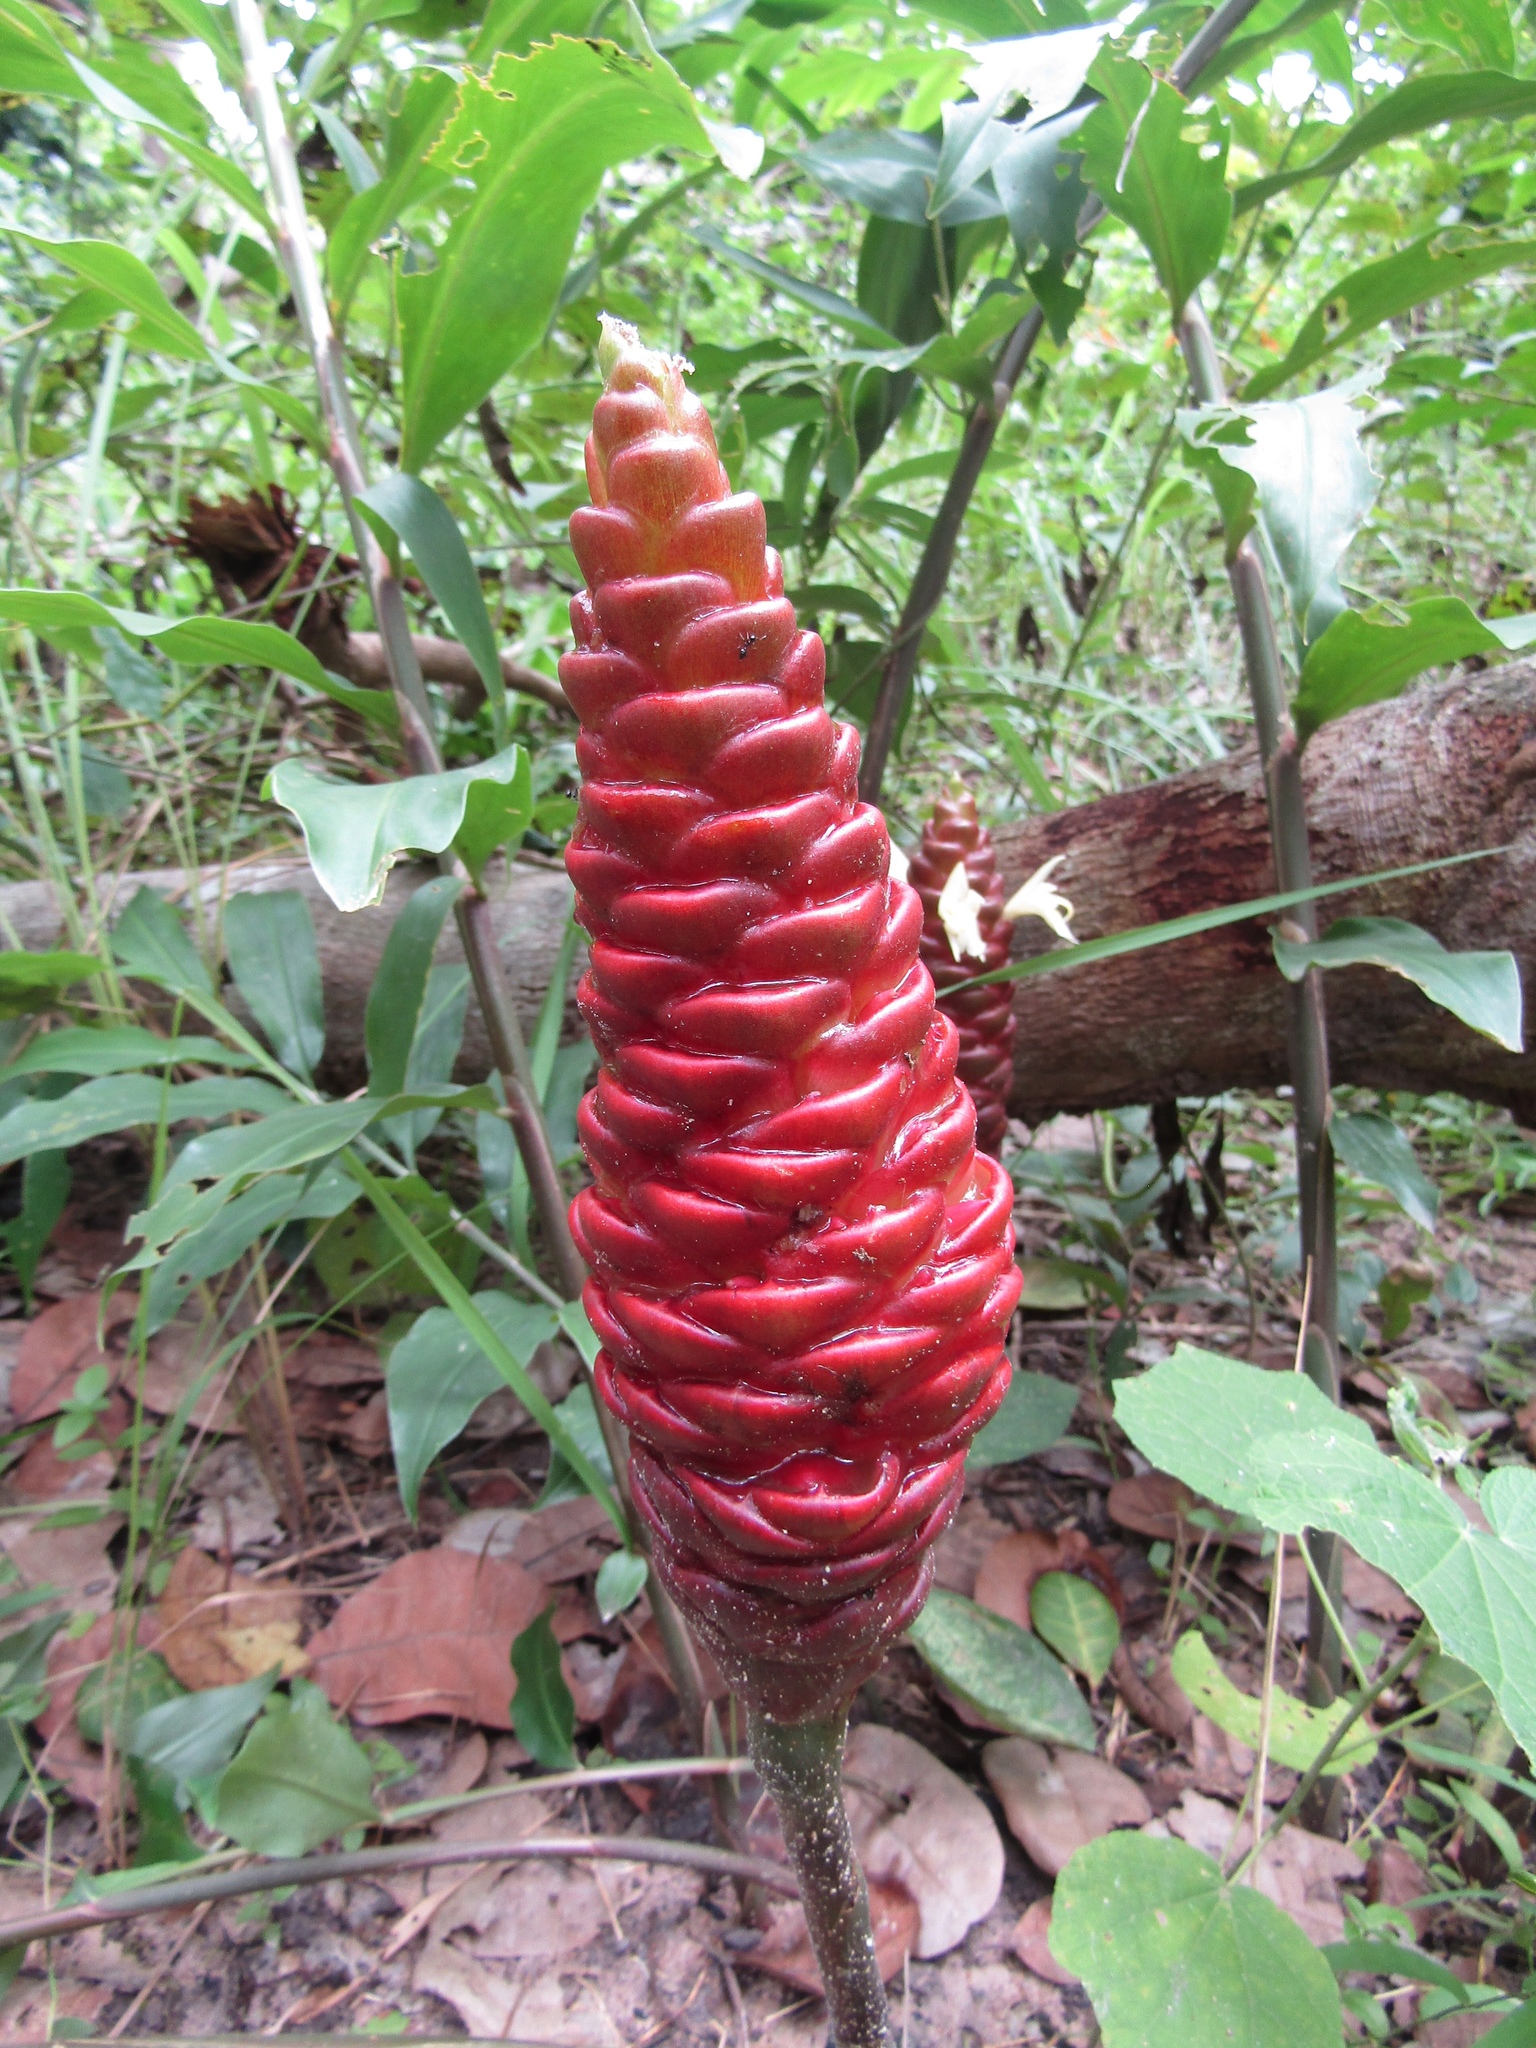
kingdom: Plantae
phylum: Tracheophyta
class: Liliopsida
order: Zingiberales
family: Zingiberaceae
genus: Zingiber
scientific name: Zingiber zerumbet
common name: Bitter ginger
